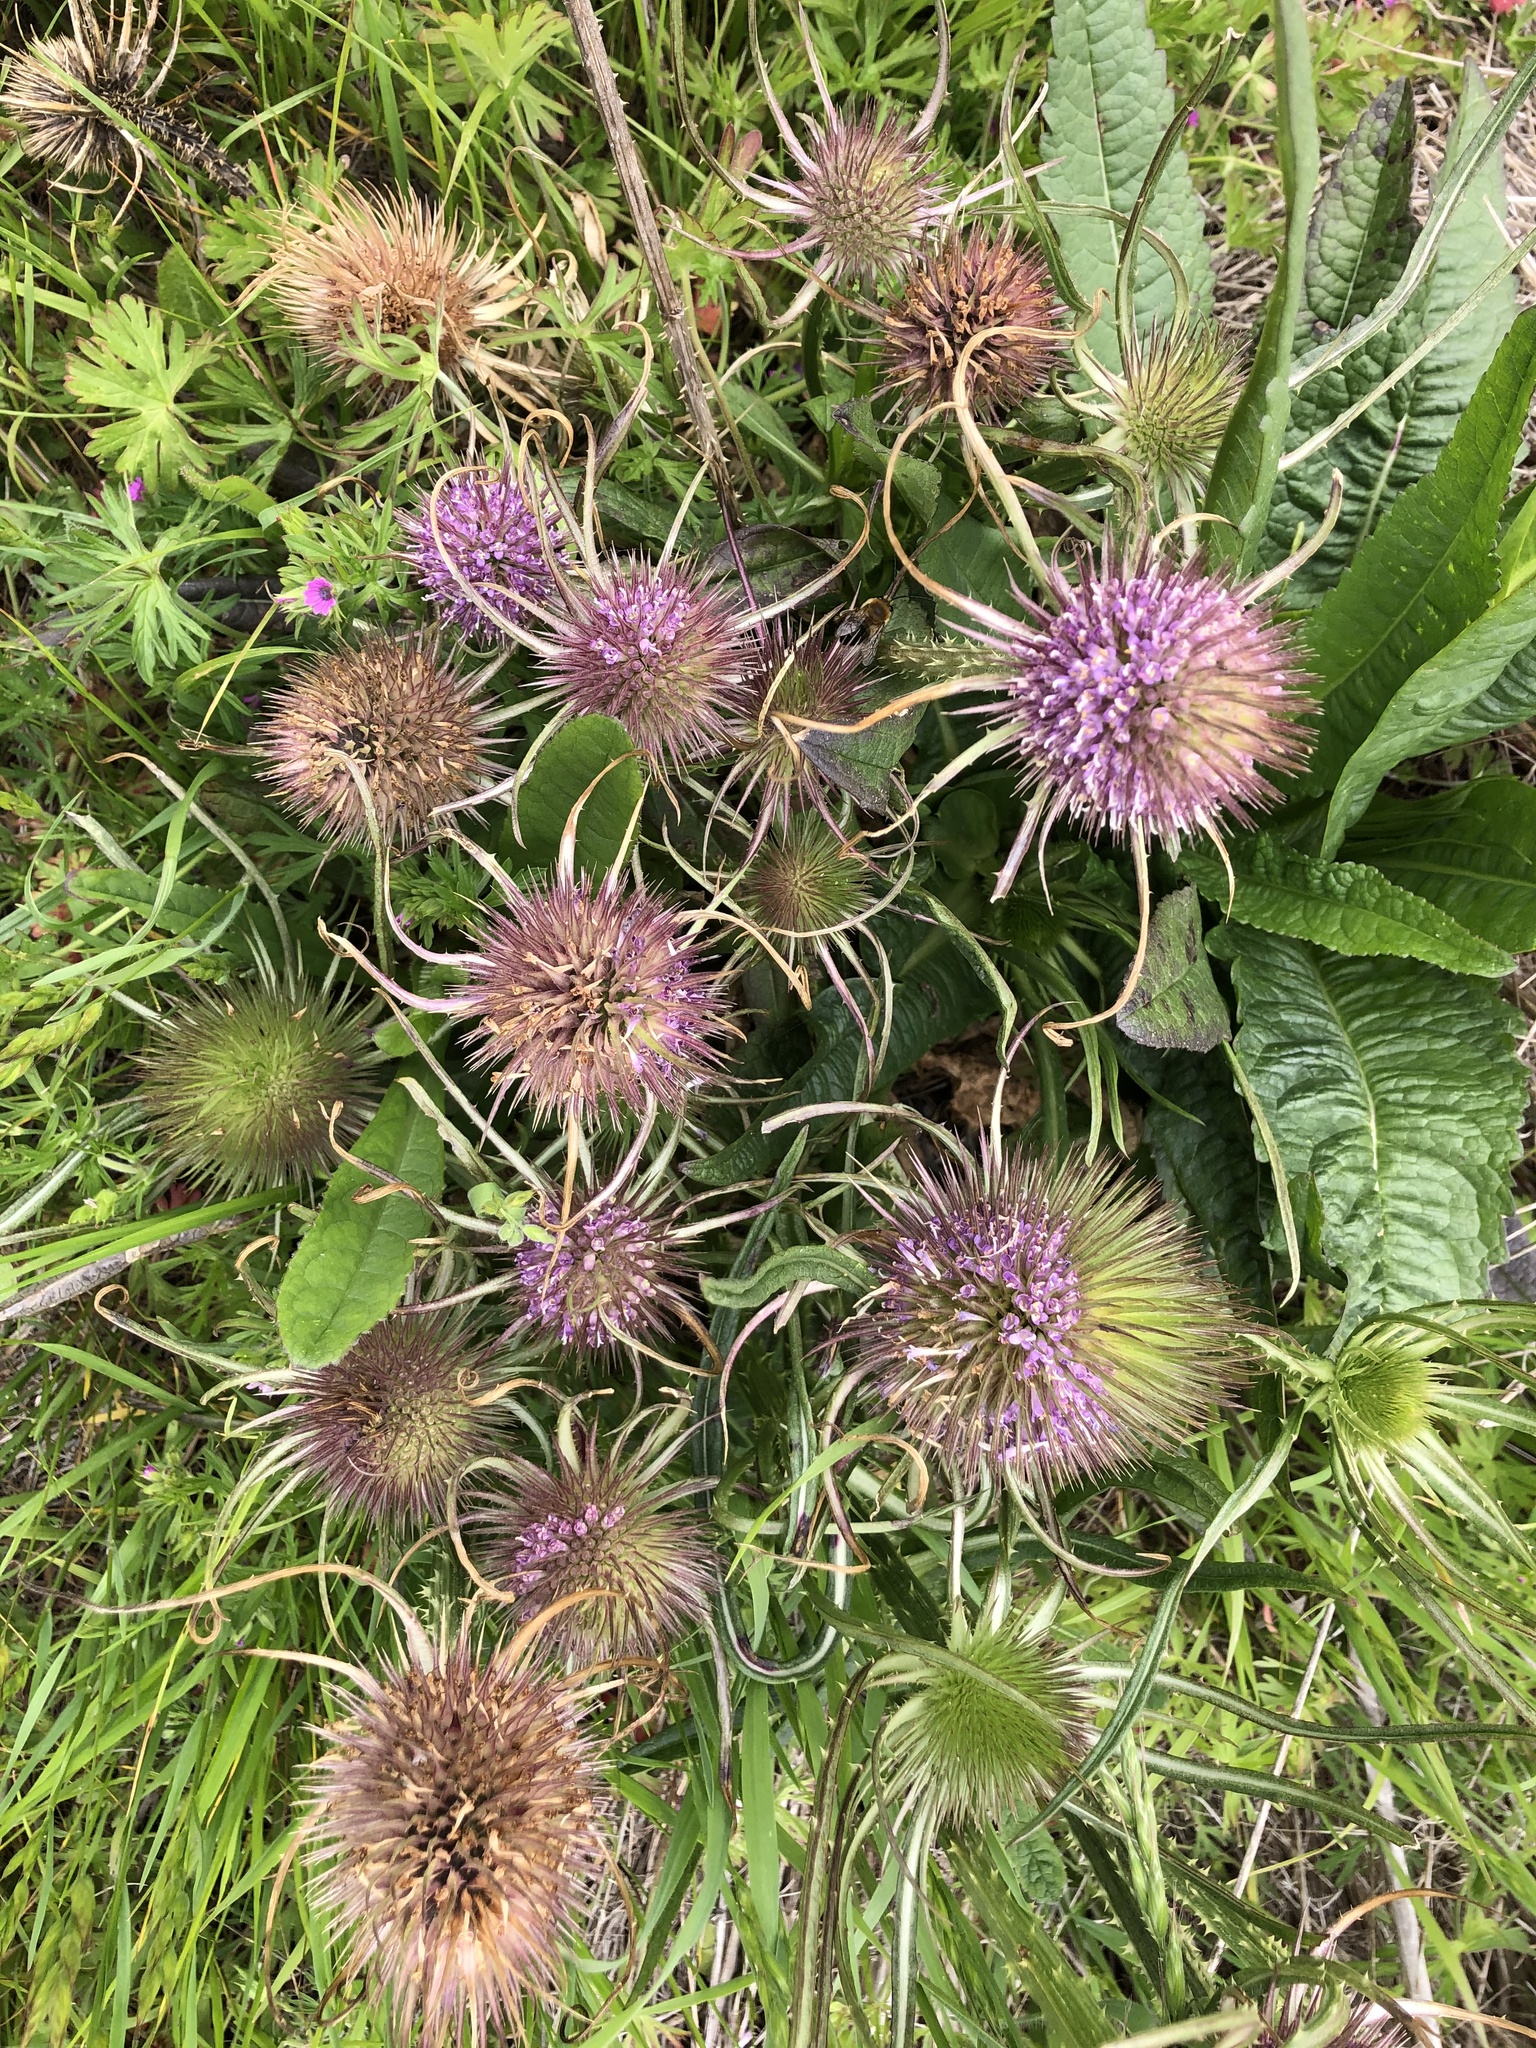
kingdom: Plantae
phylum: Tracheophyta
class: Magnoliopsida
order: Dipsacales
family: Caprifoliaceae
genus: Dipsacus
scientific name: Dipsacus fullonum
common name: Teasel
